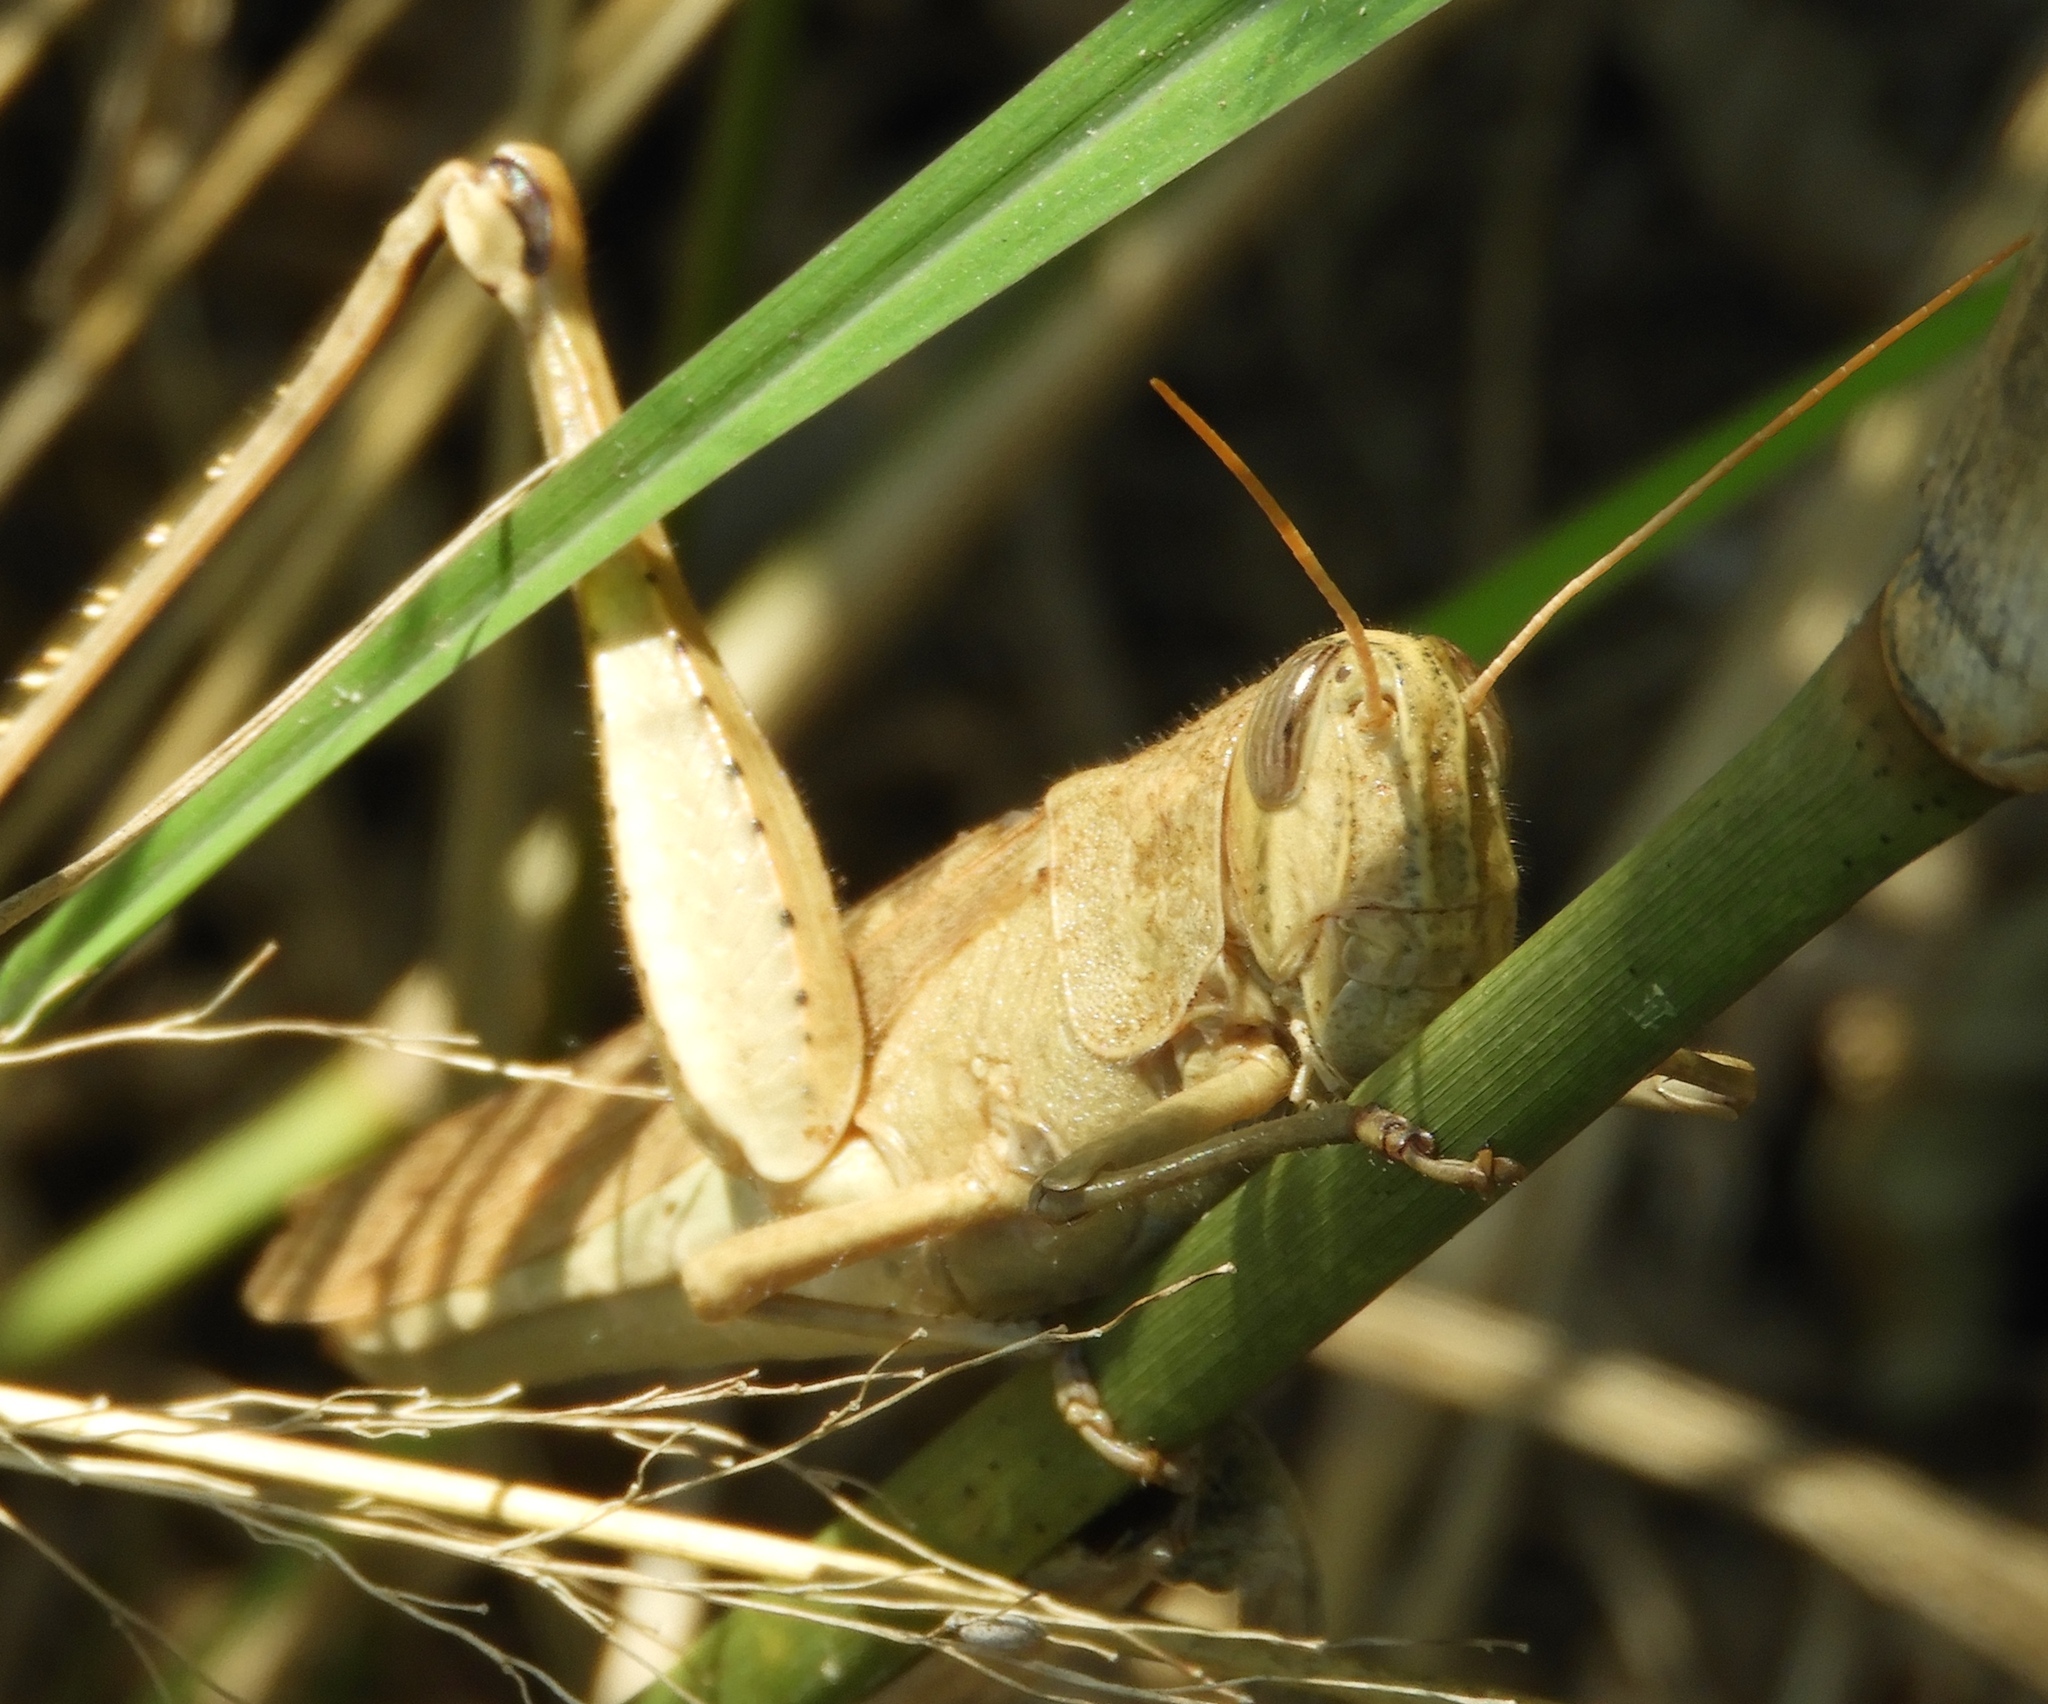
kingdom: Animalia
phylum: Arthropoda
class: Insecta
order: Orthoptera
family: Acrididae
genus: Schistocerca
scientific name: Schistocerca camerata
